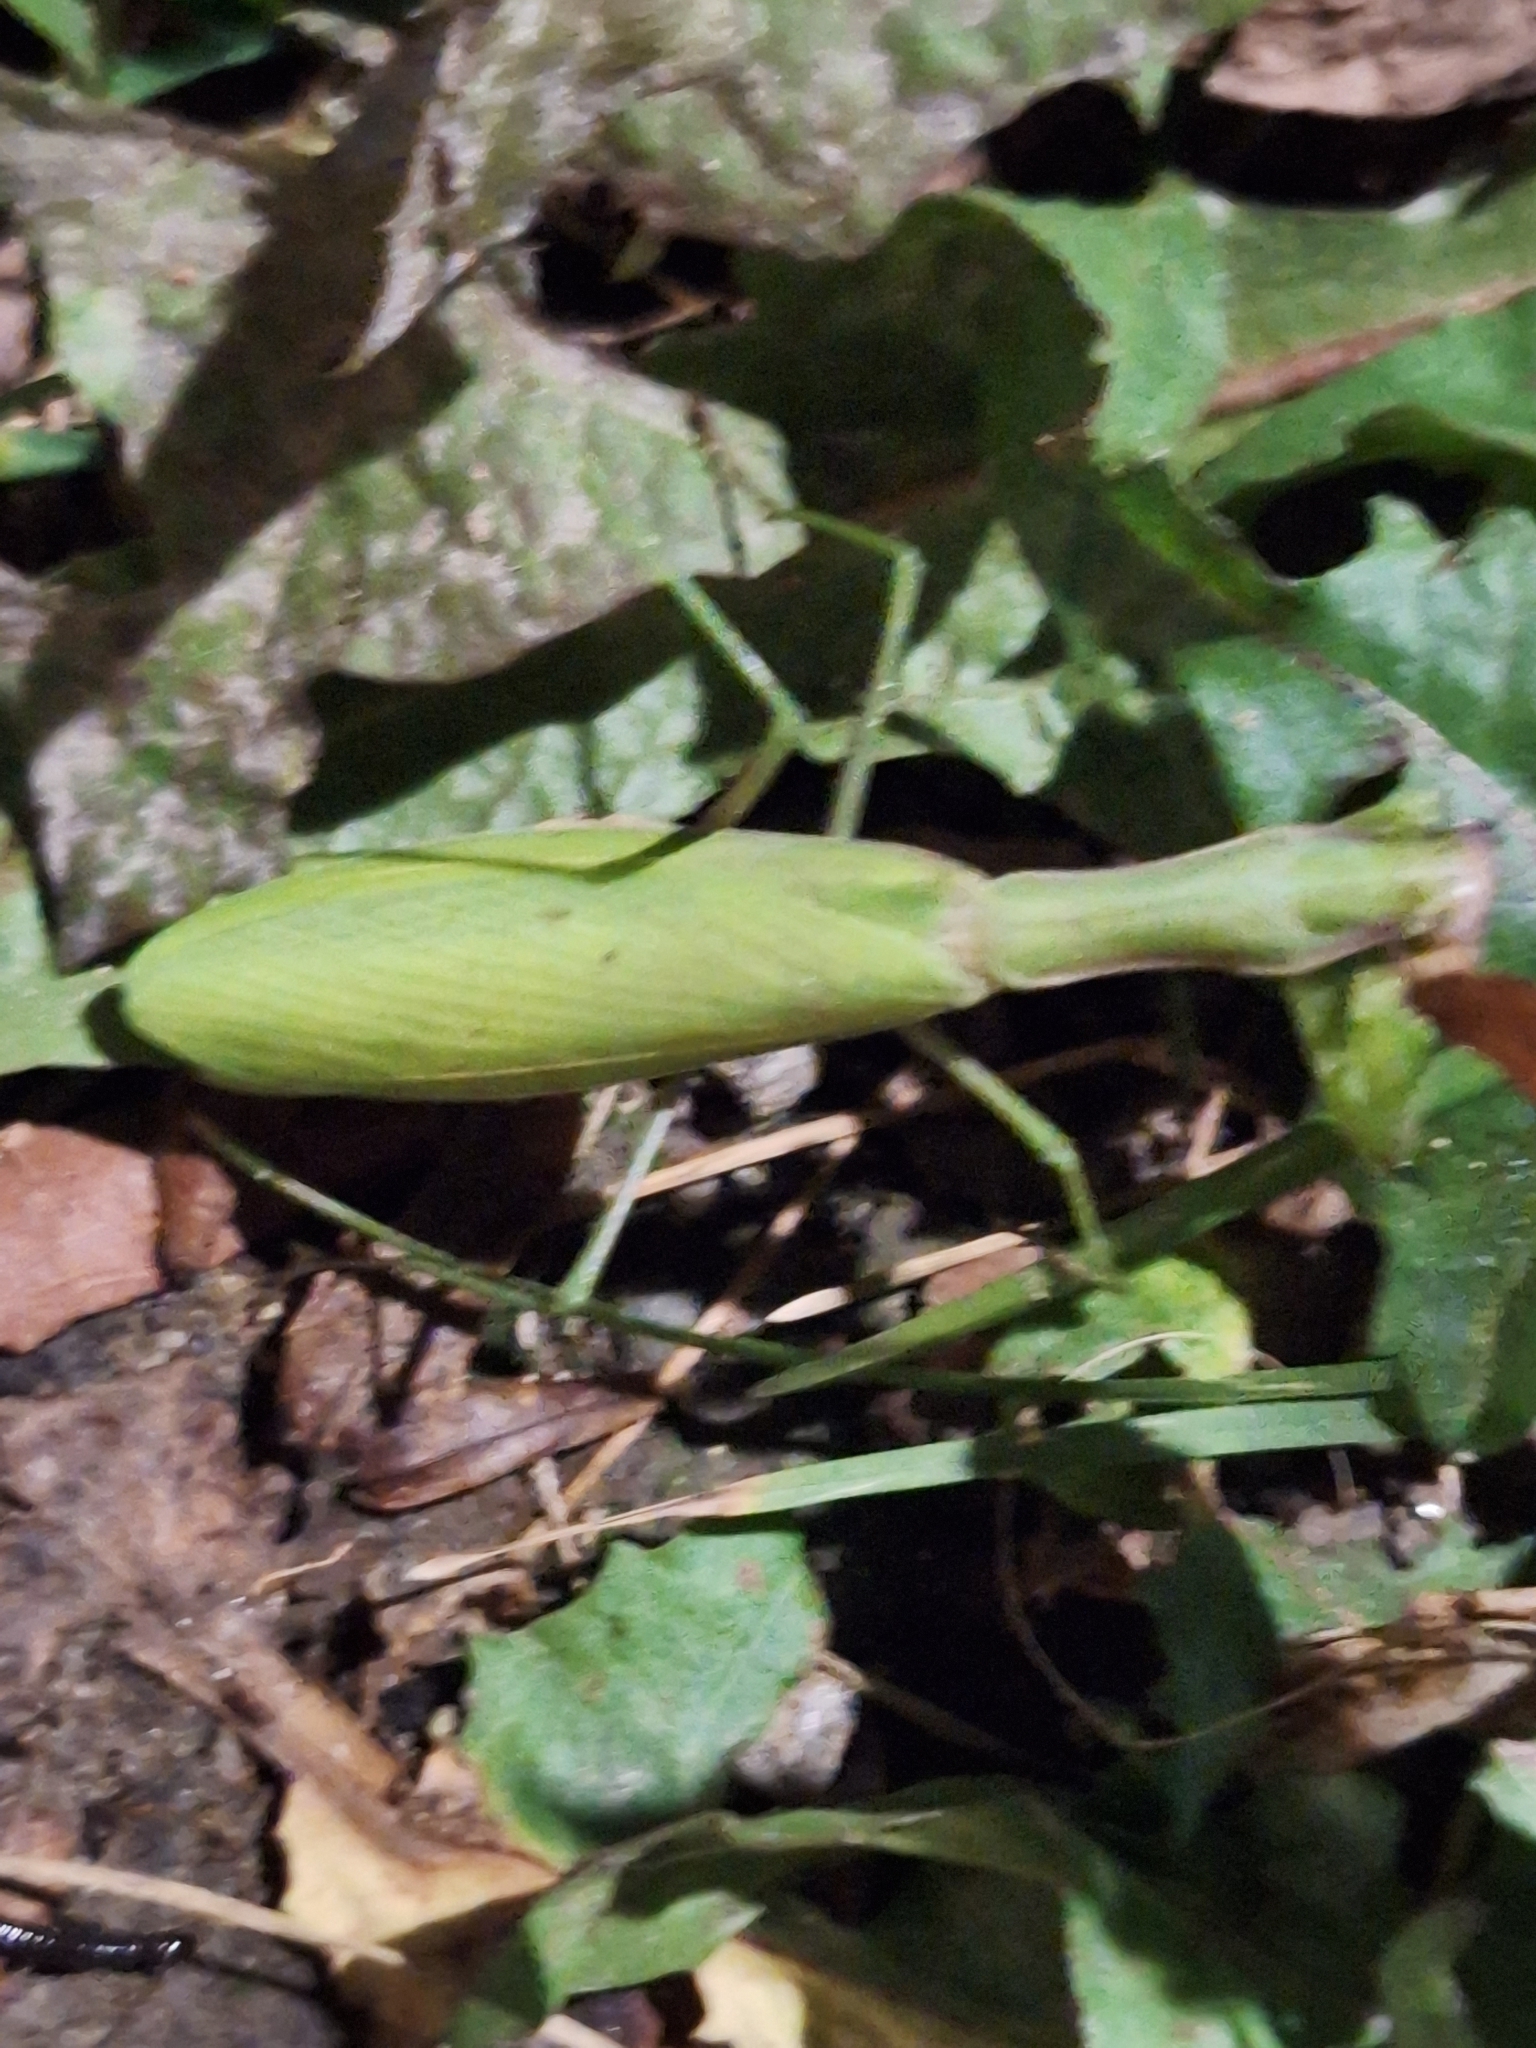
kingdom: Animalia
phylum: Arthropoda
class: Insecta
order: Mantodea
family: Mantidae
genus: Mantis
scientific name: Mantis religiosa
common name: Praying mantis
